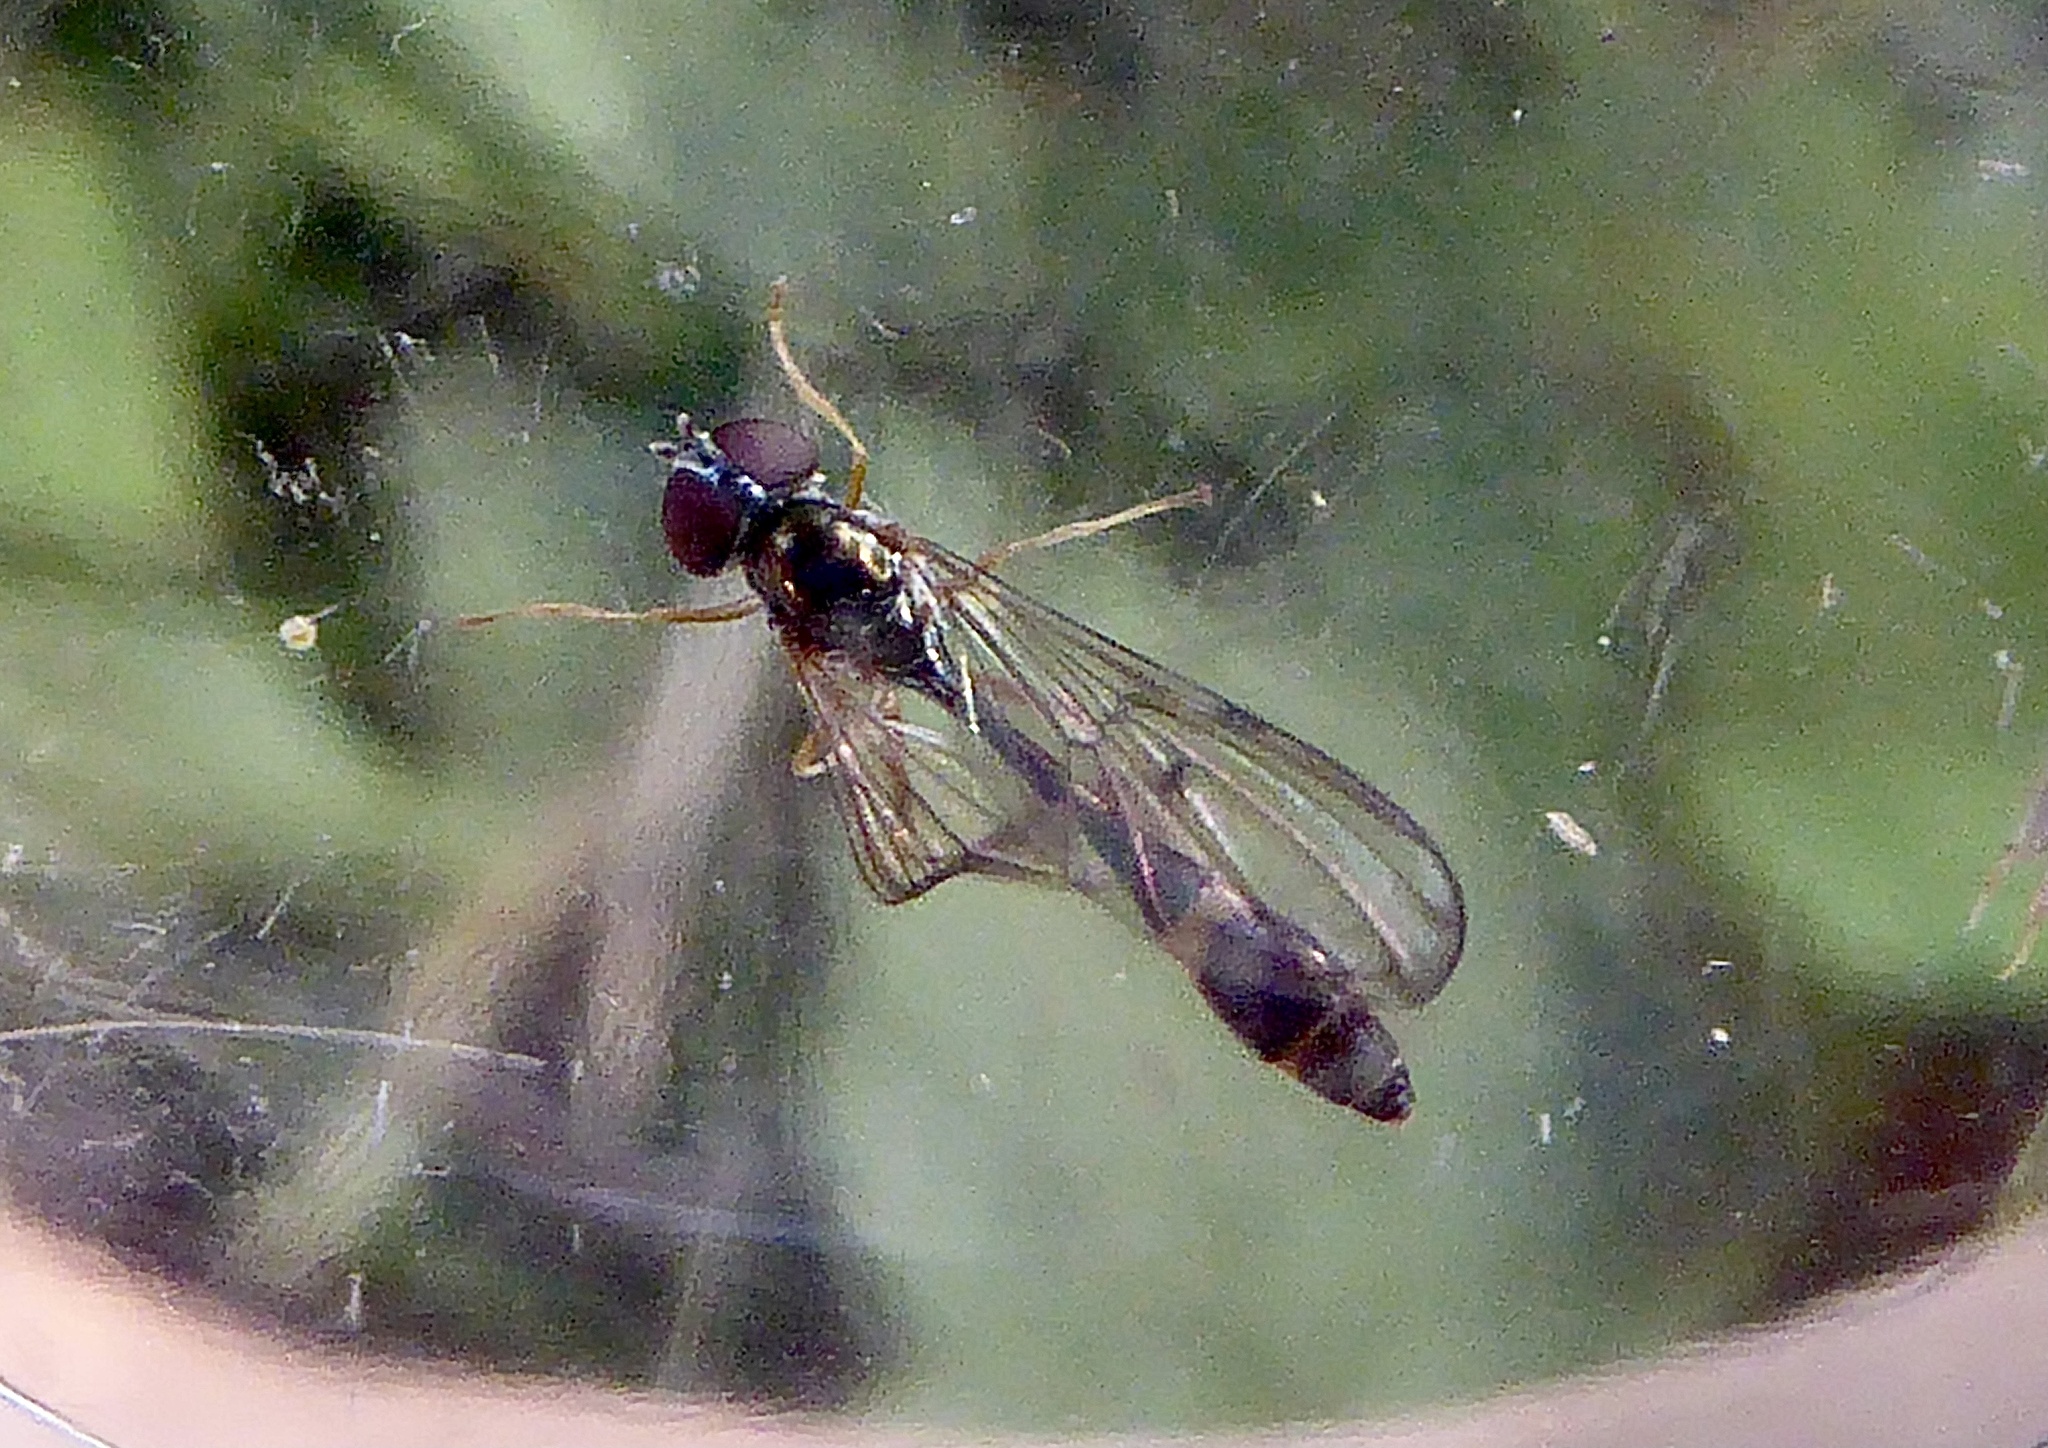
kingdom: Animalia
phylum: Arthropoda
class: Insecta
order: Diptera
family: Syrphidae
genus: Baccha
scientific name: Baccha elongata
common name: Common dainty
